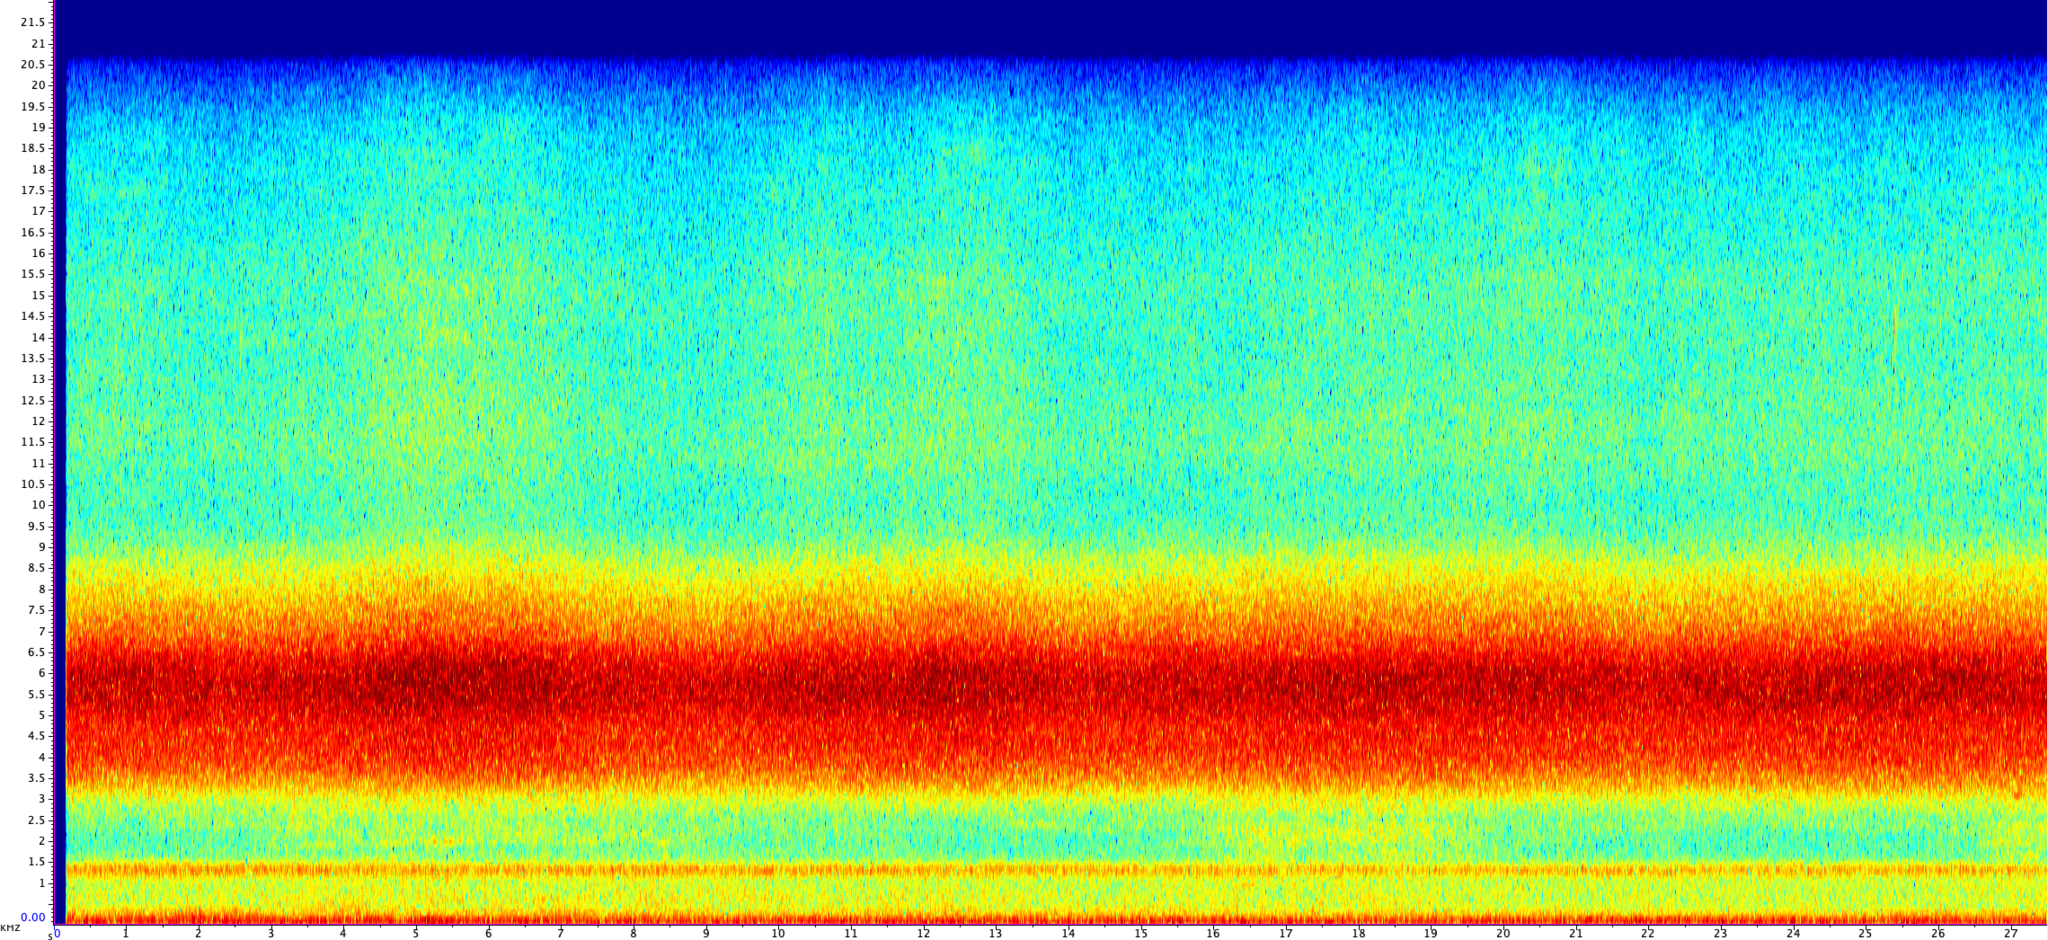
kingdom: Animalia
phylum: Arthropoda
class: Insecta
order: Hemiptera
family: Cicadidae
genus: Magicicada
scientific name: Magicicada cassini
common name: Cassin's 17-year cicada
